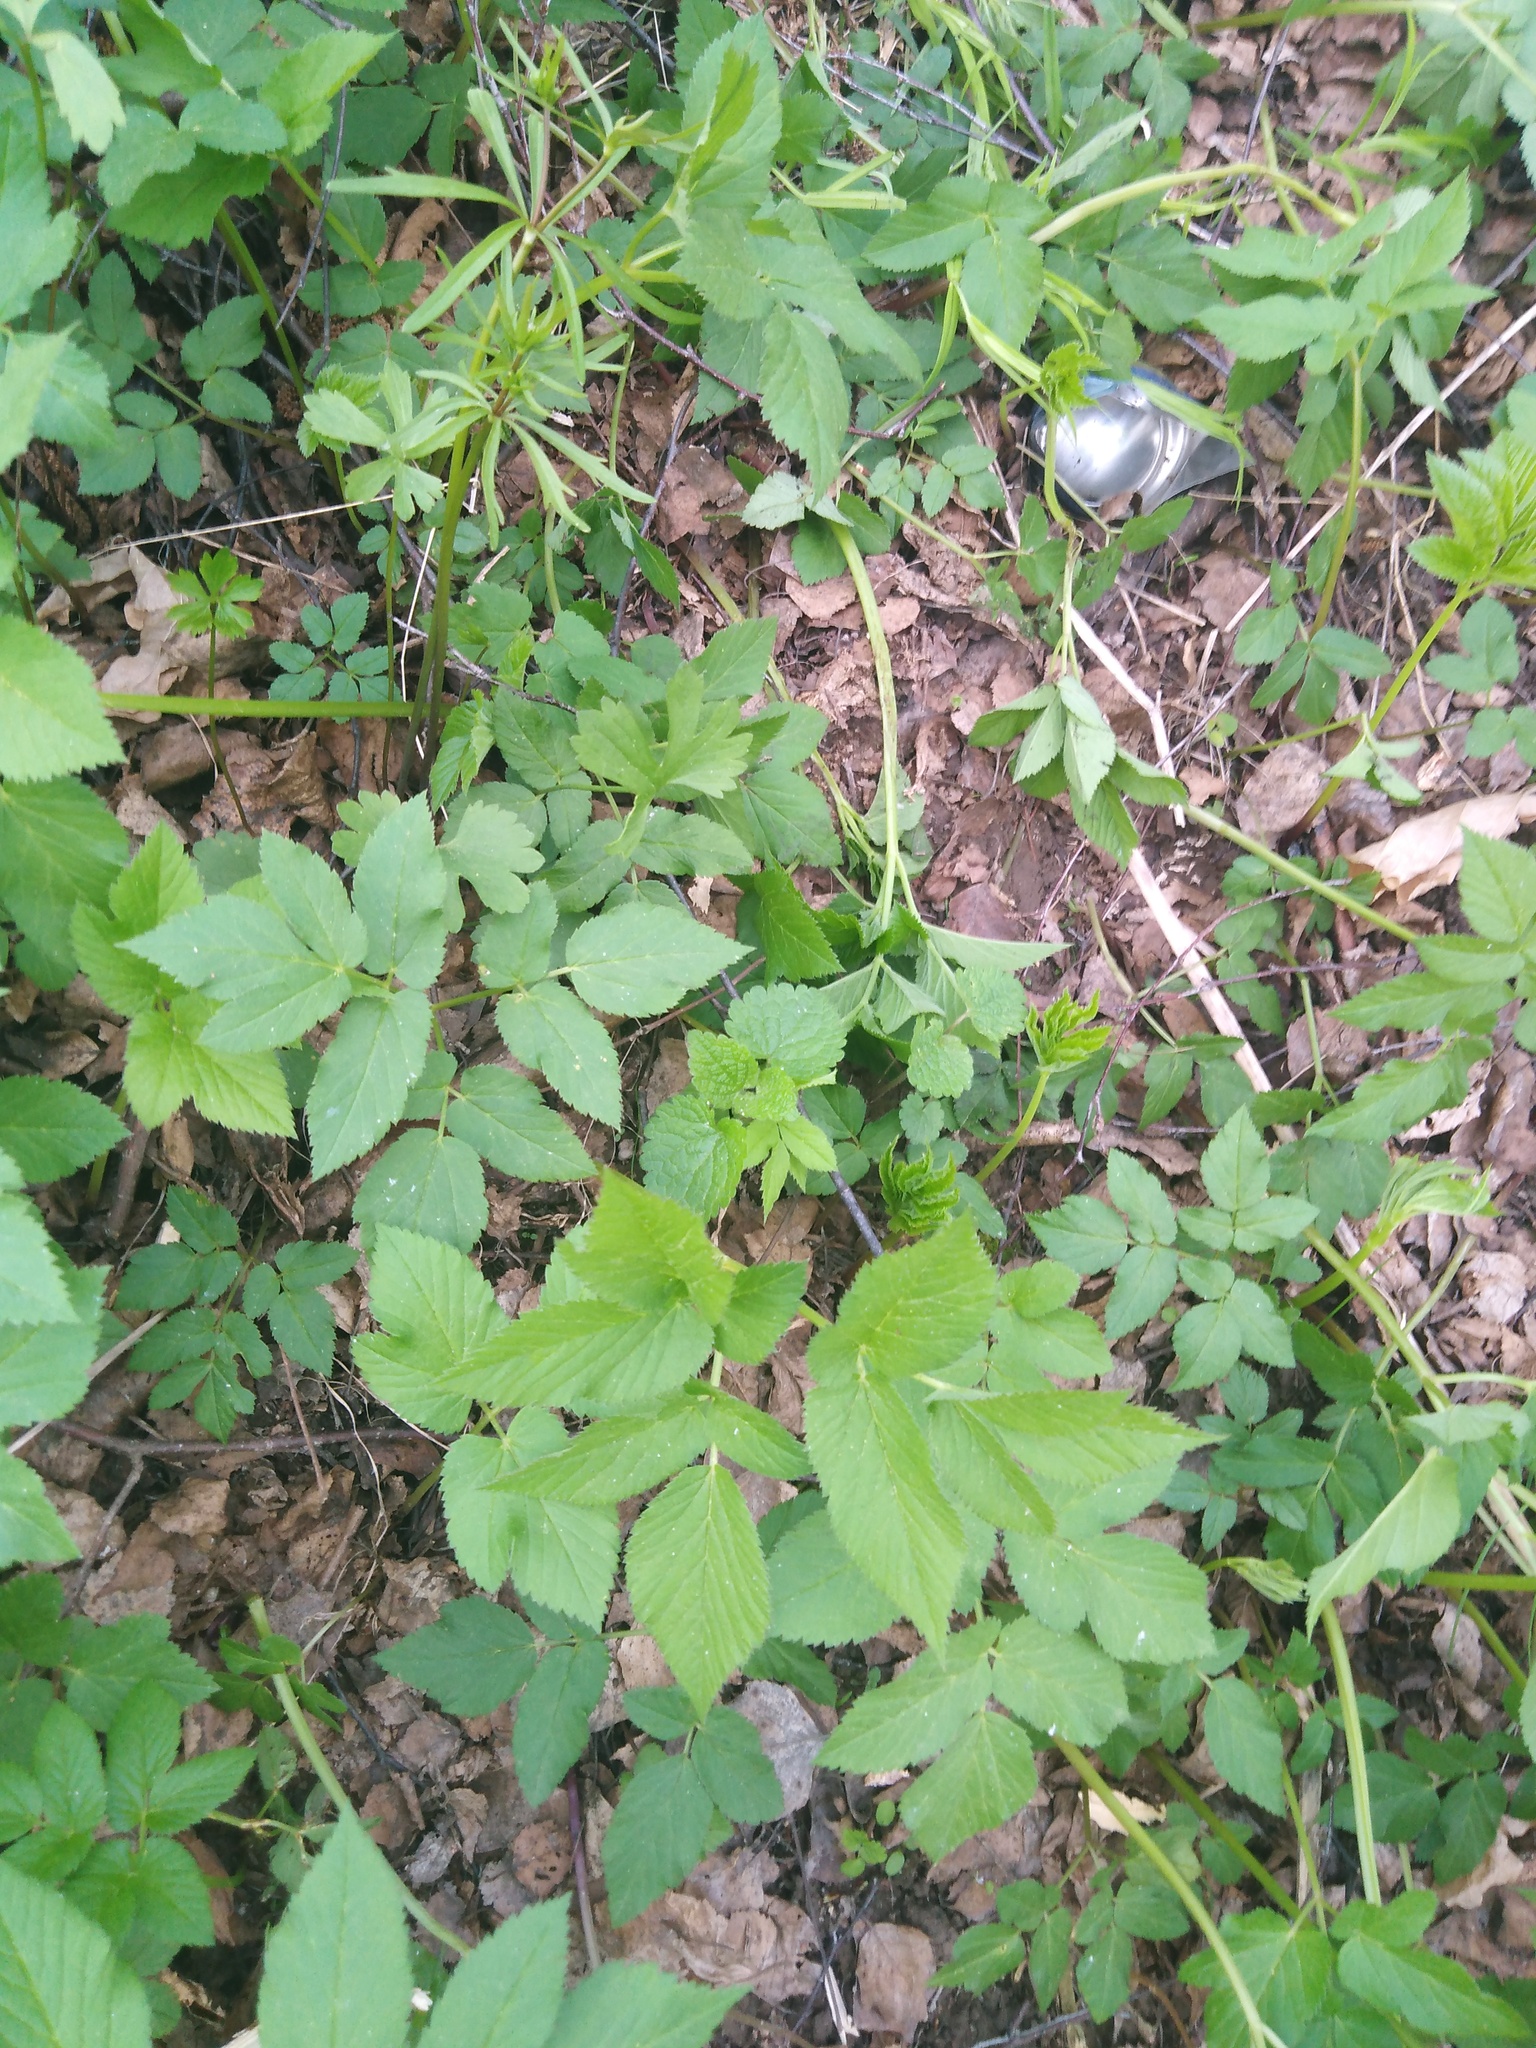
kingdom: Plantae
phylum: Tracheophyta
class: Magnoliopsida
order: Apiales
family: Apiaceae
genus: Aegopodium
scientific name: Aegopodium podagraria
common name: Ground-elder
